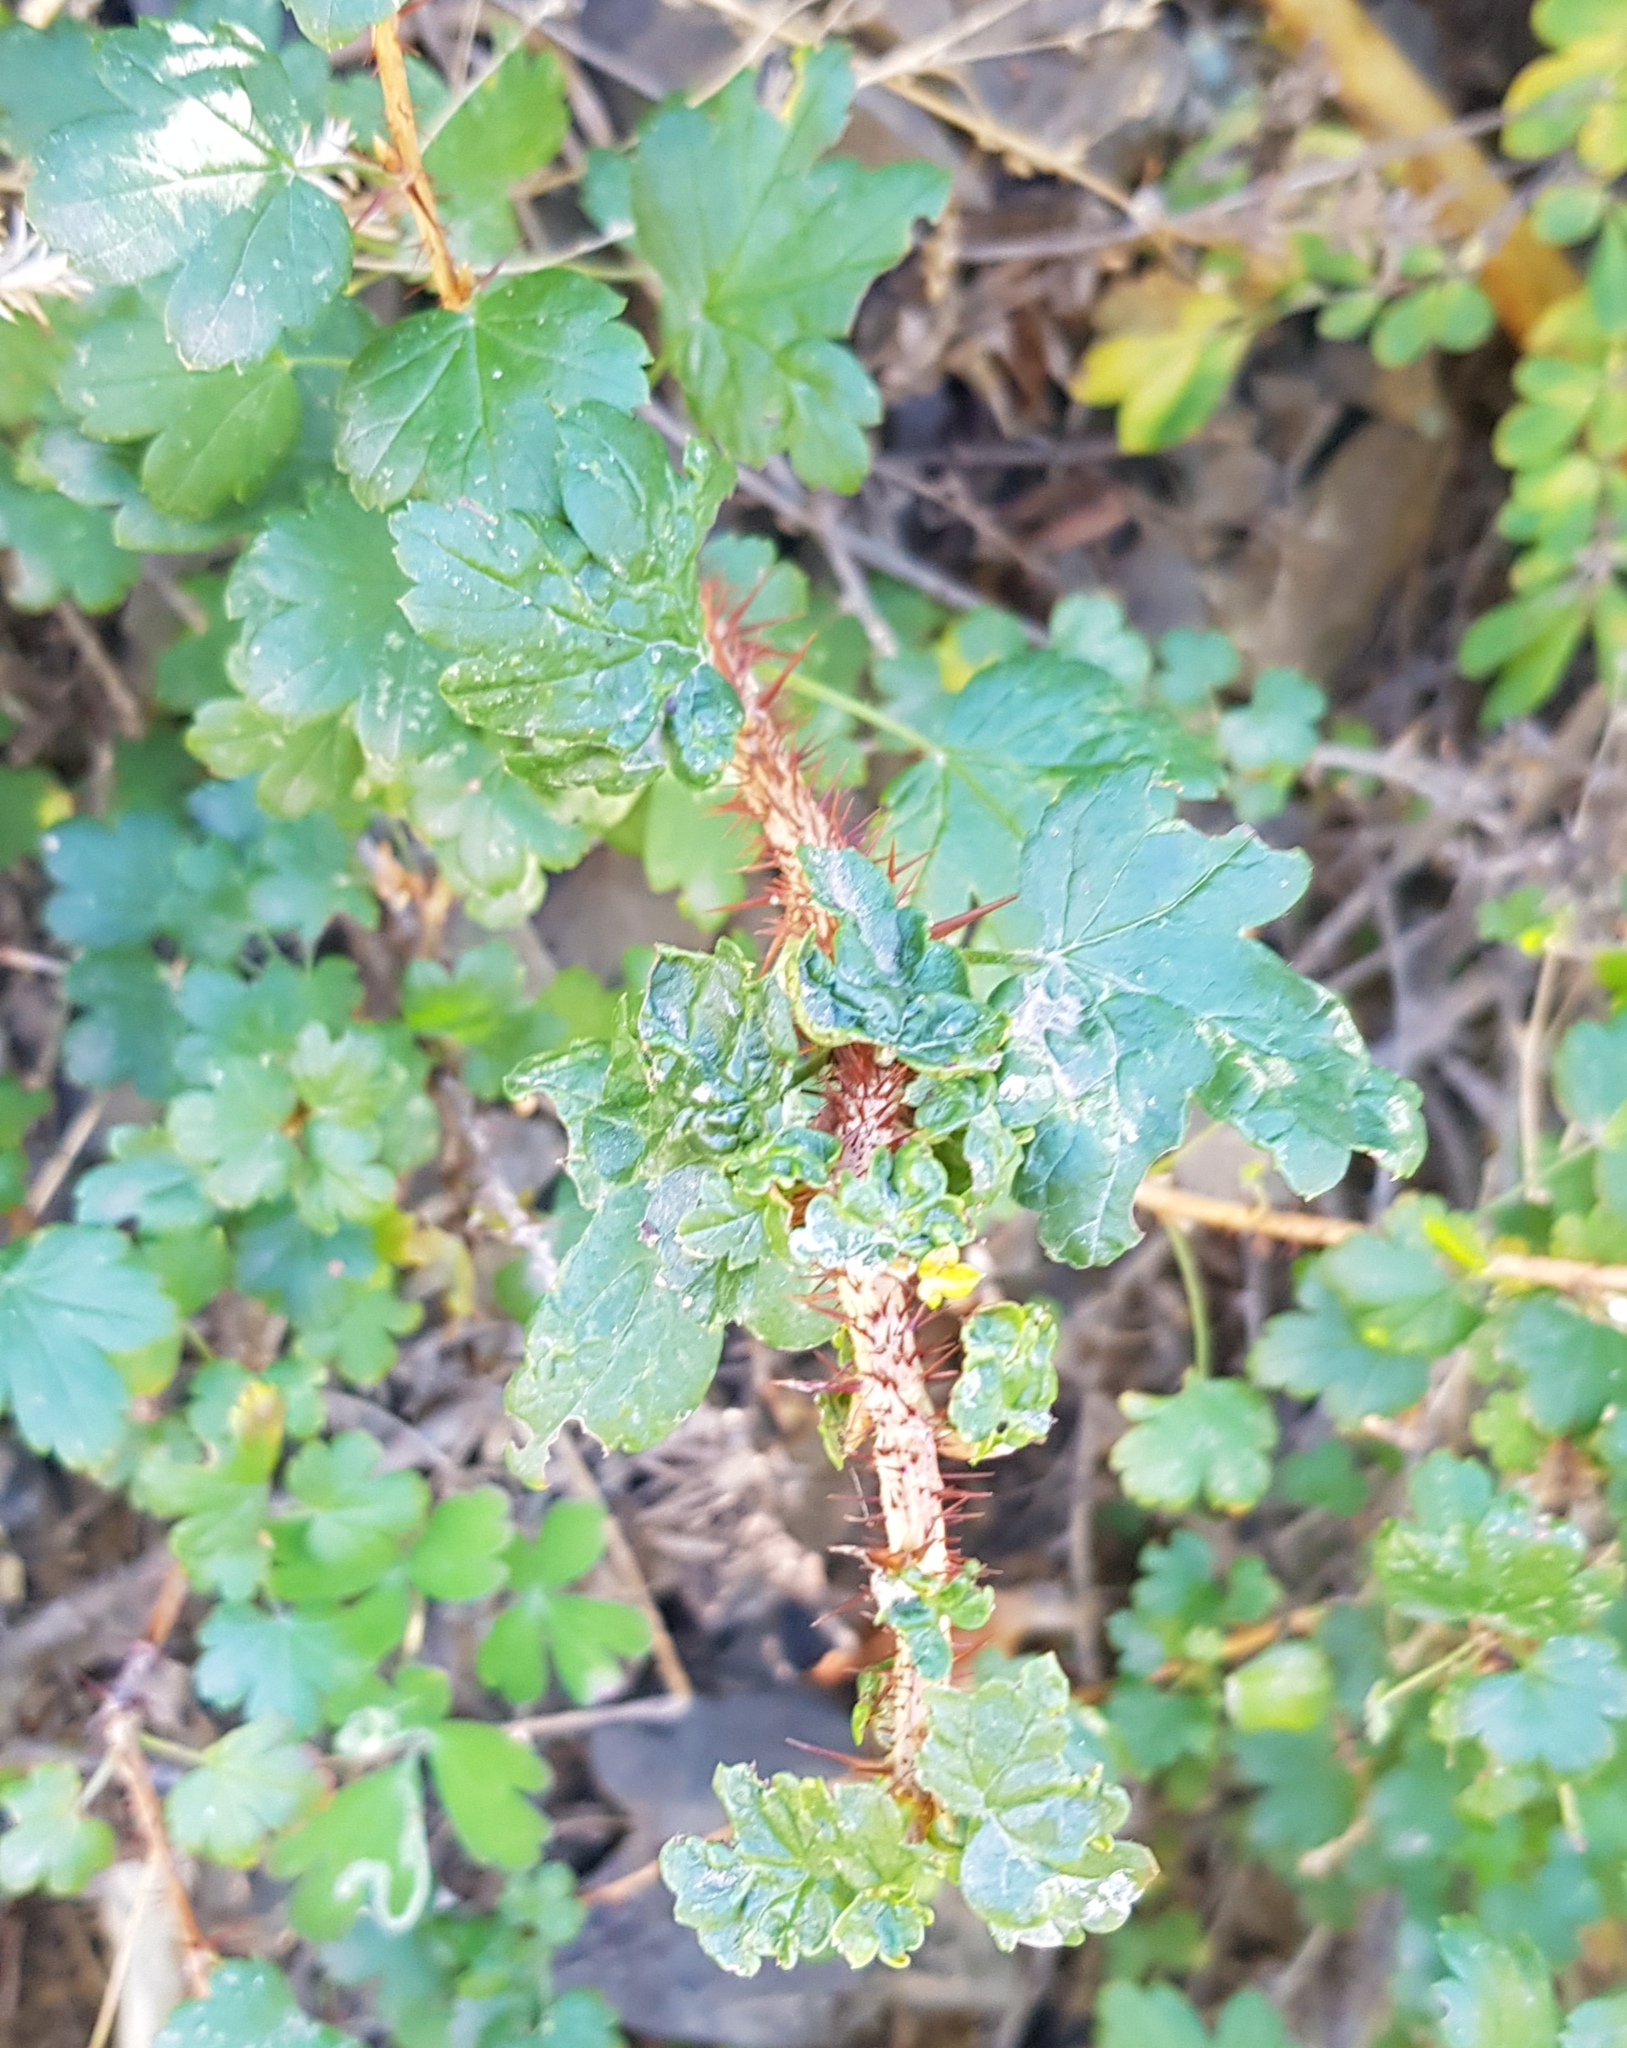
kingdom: Plantae
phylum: Tracheophyta
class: Magnoliopsida
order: Saxifragales
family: Grossulariaceae
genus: Ribes
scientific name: Ribes aciculare
